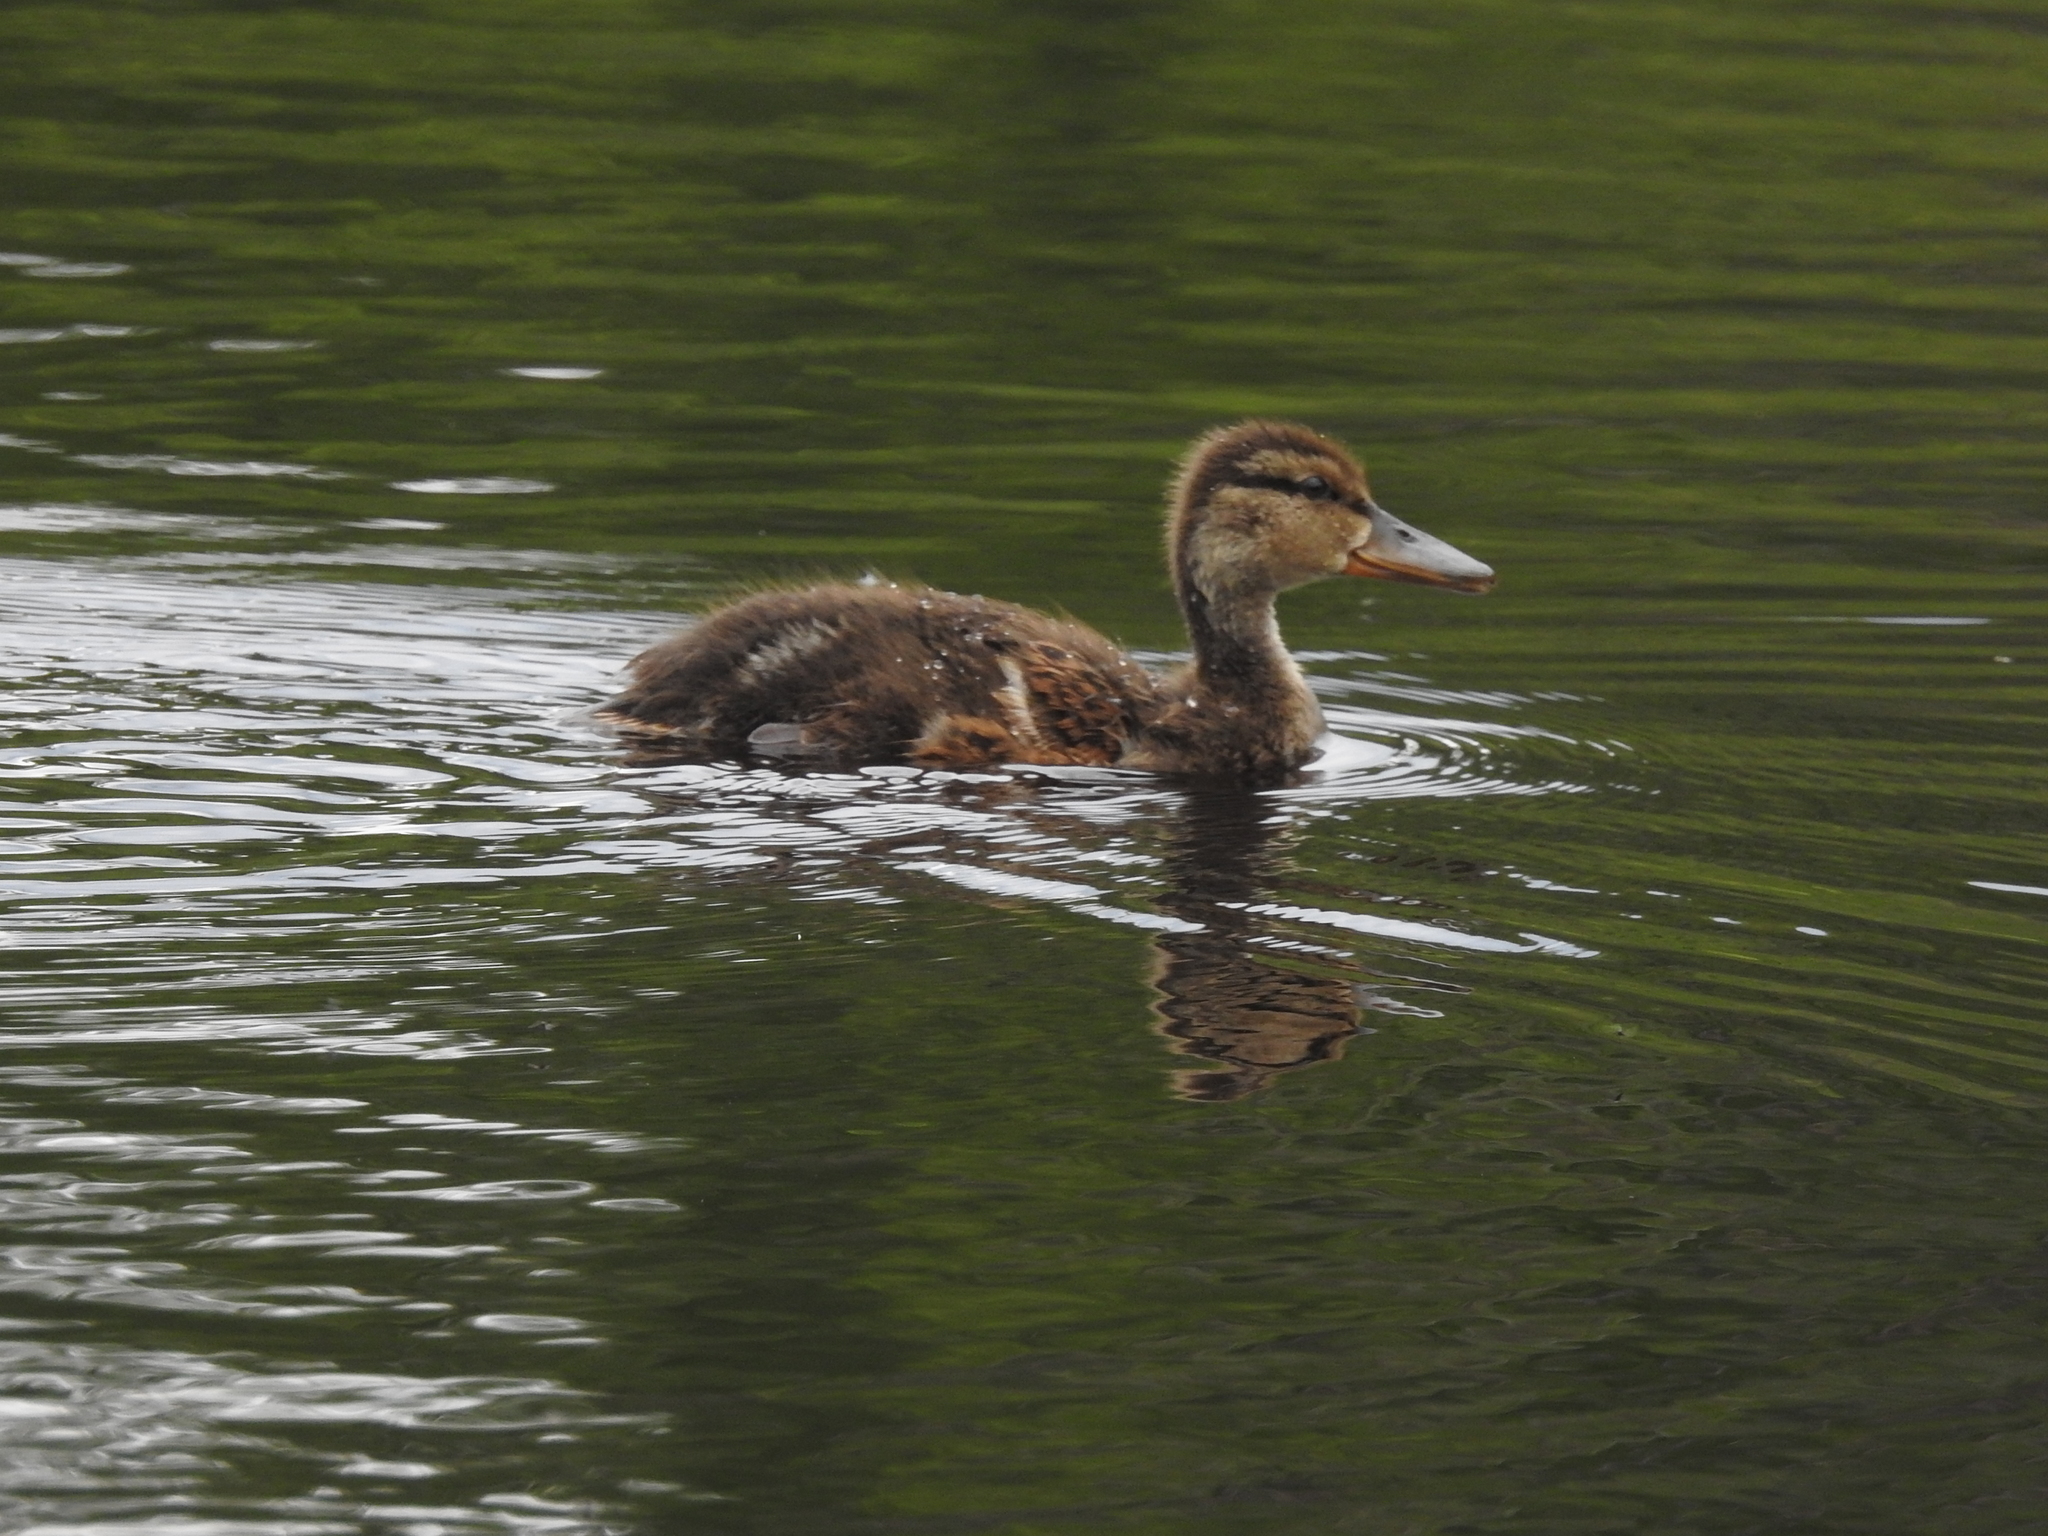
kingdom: Animalia
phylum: Chordata
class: Aves
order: Anseriformes
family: Anatidae
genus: Anas
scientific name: Anas platyrhynchos
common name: Mallard
